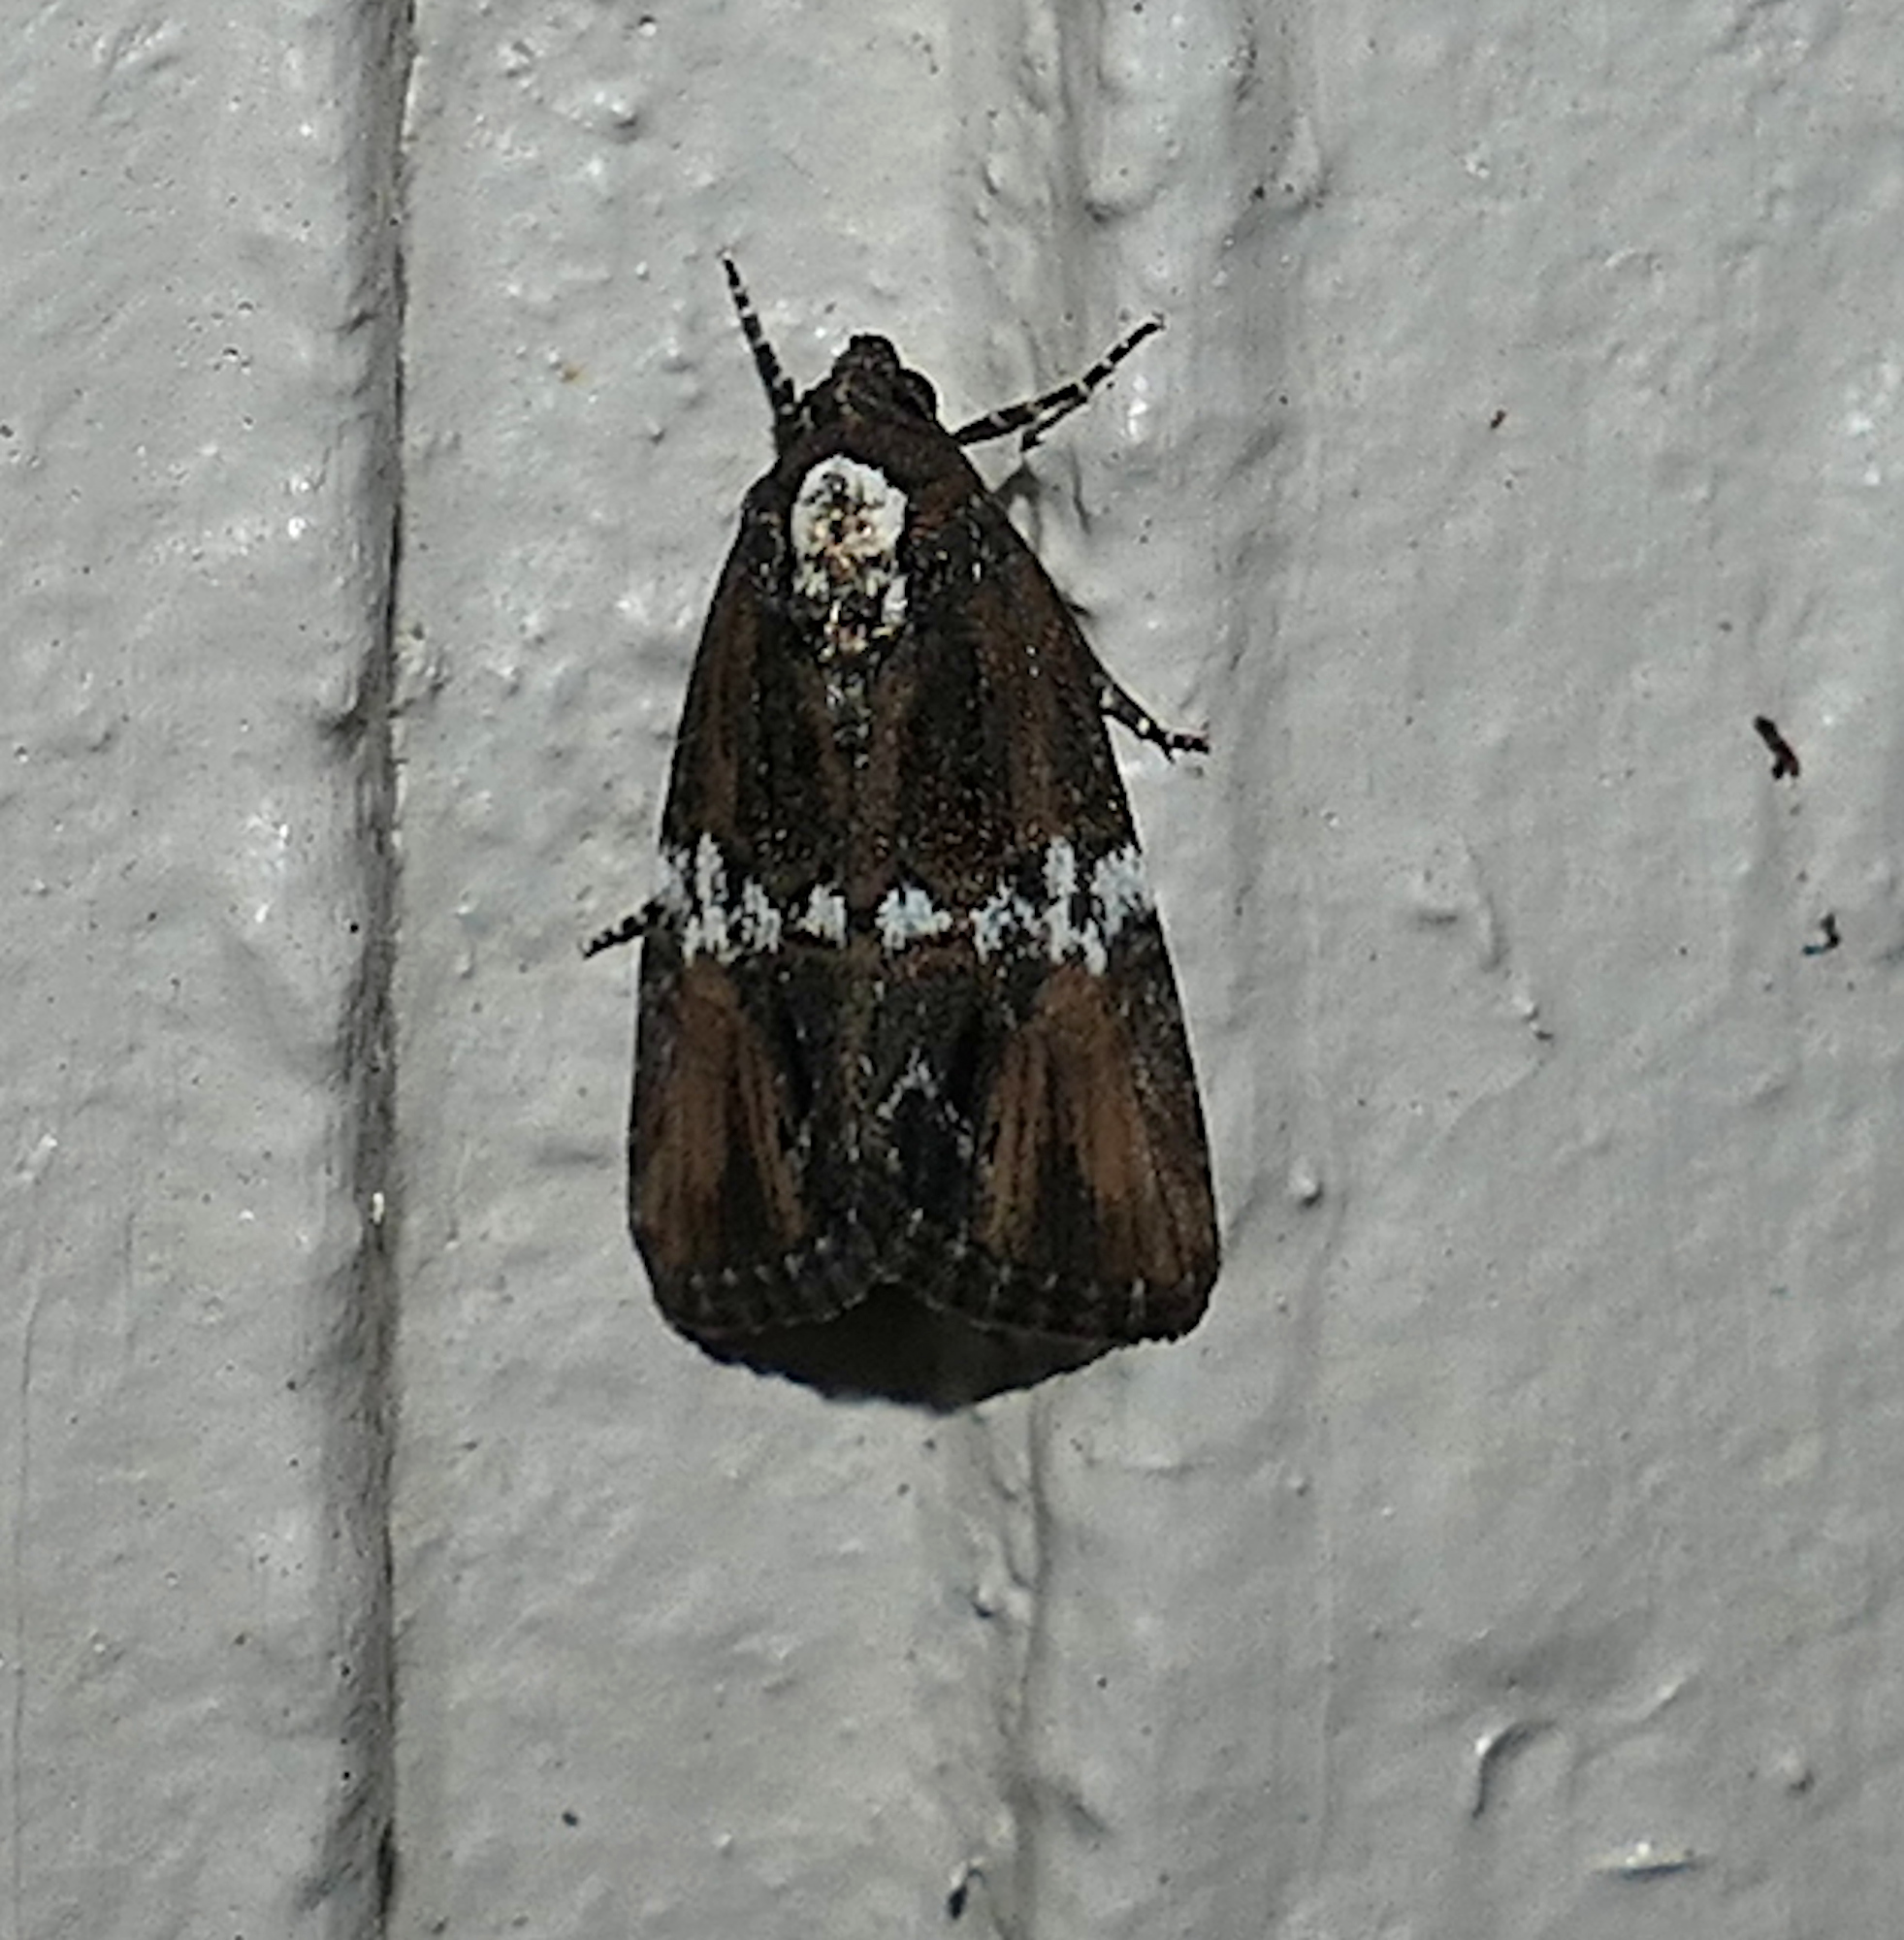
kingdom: Animalia
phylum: Arthropoda
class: Insecta
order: Lepidoptera
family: Noctuidae
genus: Bryolymnia
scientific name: Bryolymnia semifascia
